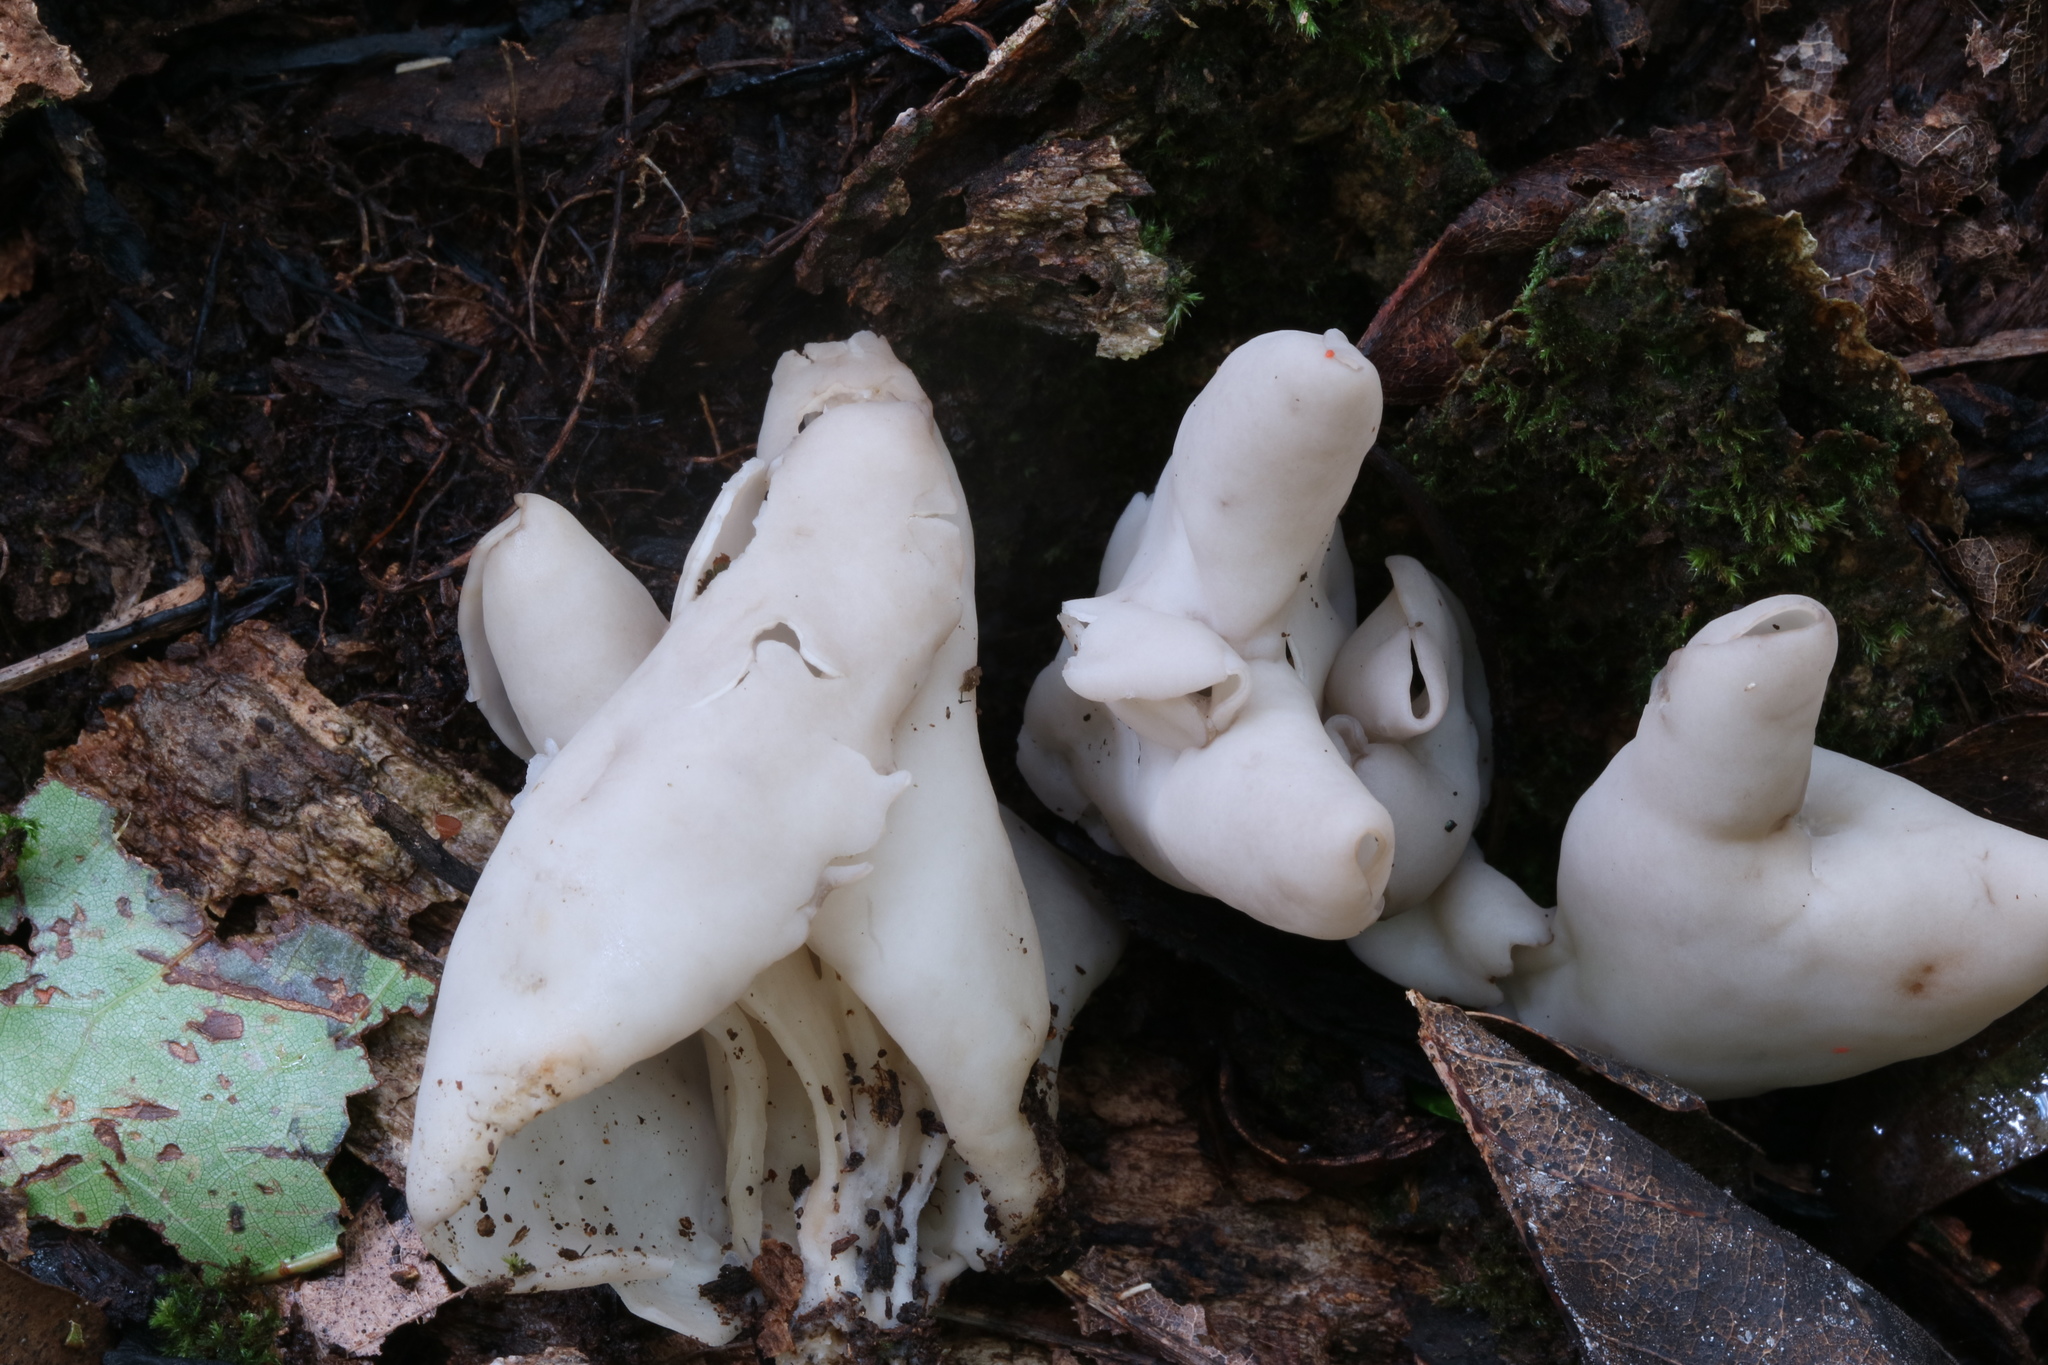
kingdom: Fungi
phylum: Ascomycota
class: Pezizomycetes
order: Pezizales
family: Helvellaceae
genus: Helvella
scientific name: Helvella lactea
